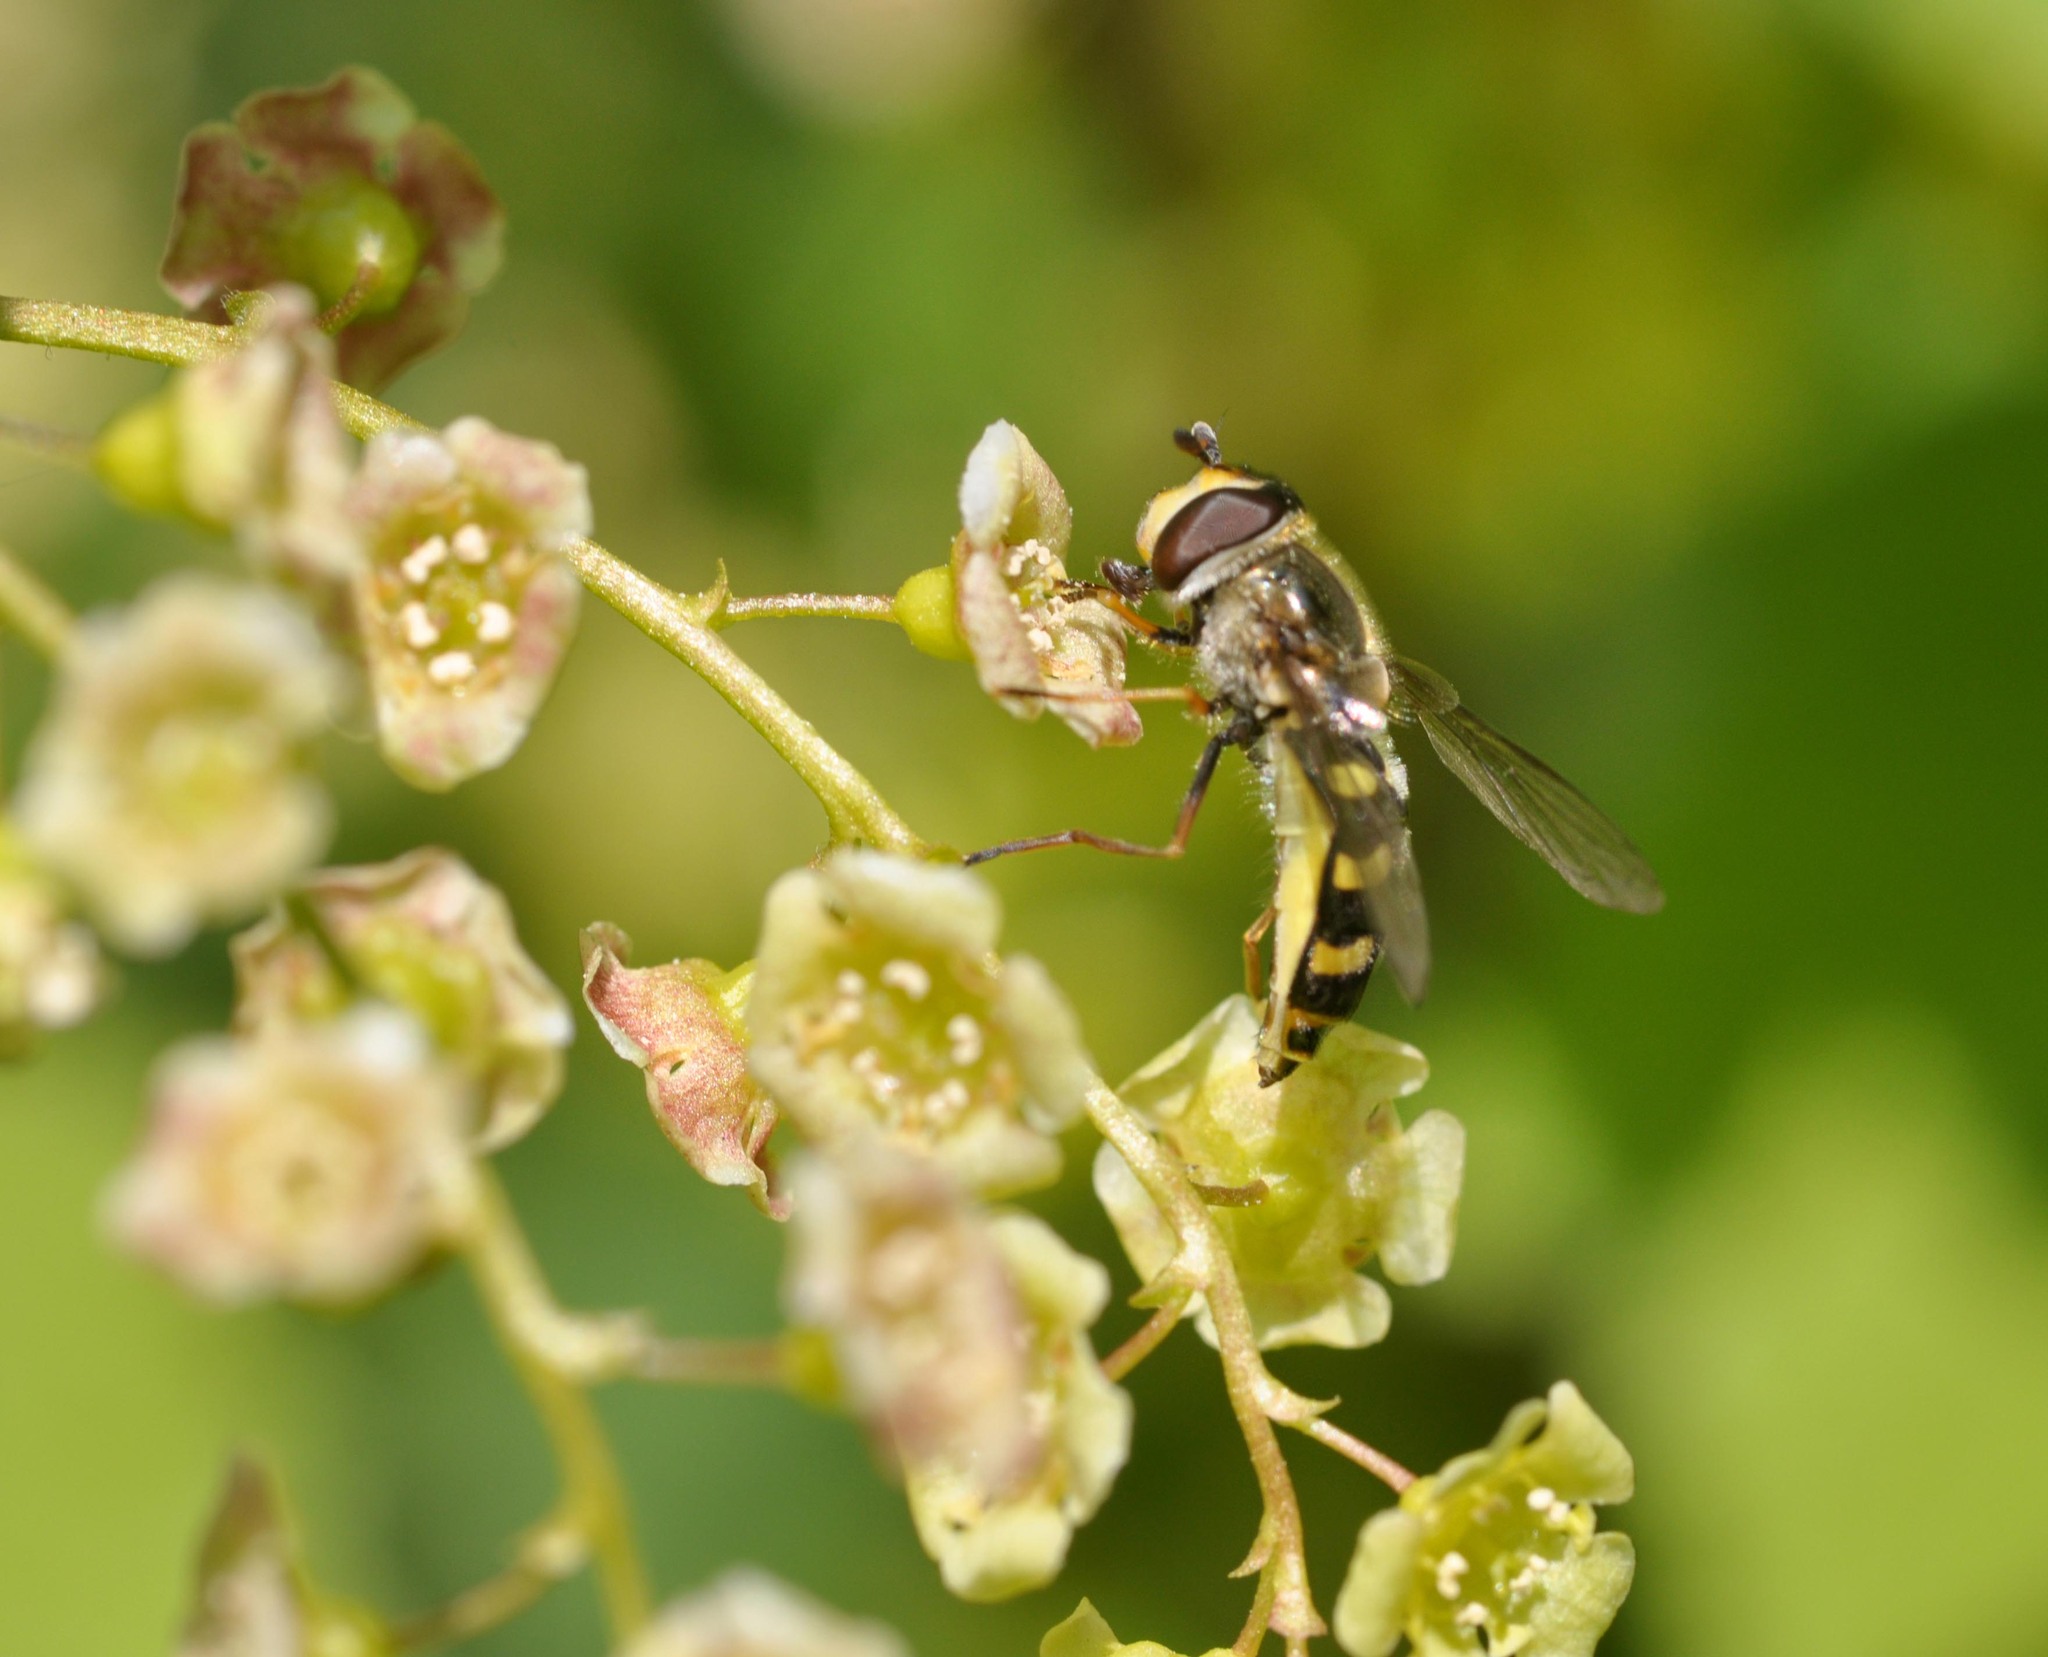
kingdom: Animalia
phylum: Arthropoda
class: Insecta
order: Diptera
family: Syrphidae
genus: Eupeodes
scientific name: Eupeodes
